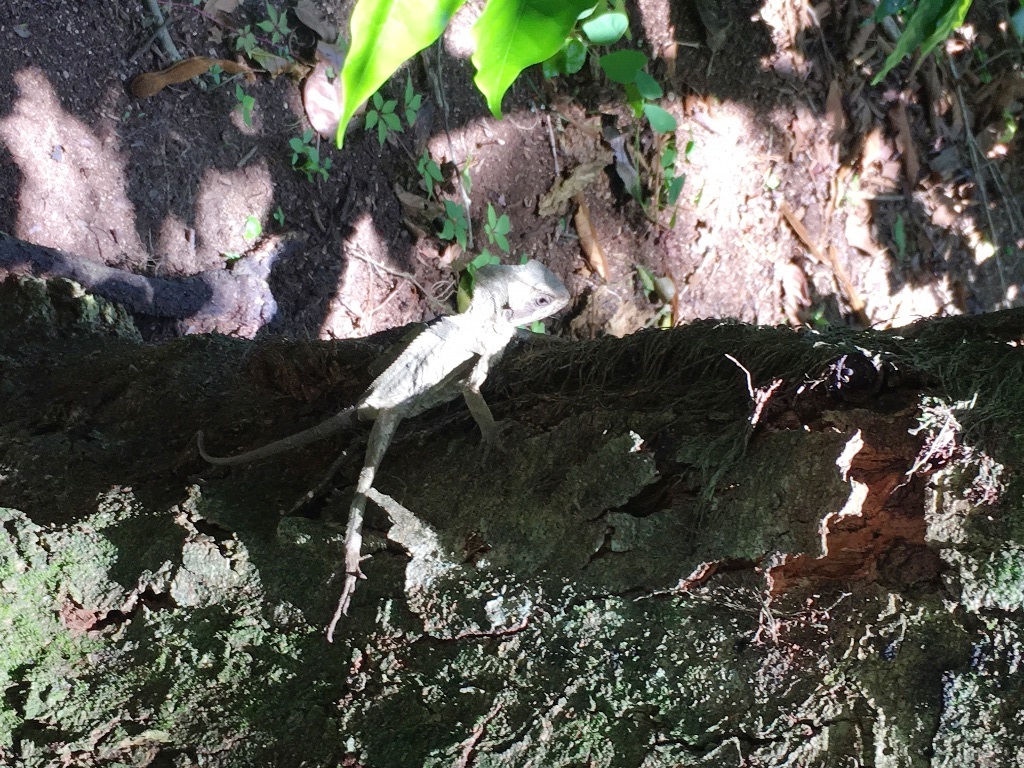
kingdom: Animalia
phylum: Chordata
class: Squamata
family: Corytophanidae
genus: Corytophanes
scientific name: Corytophanes hernandesii
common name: Hernandez’s helmeted basilisk
